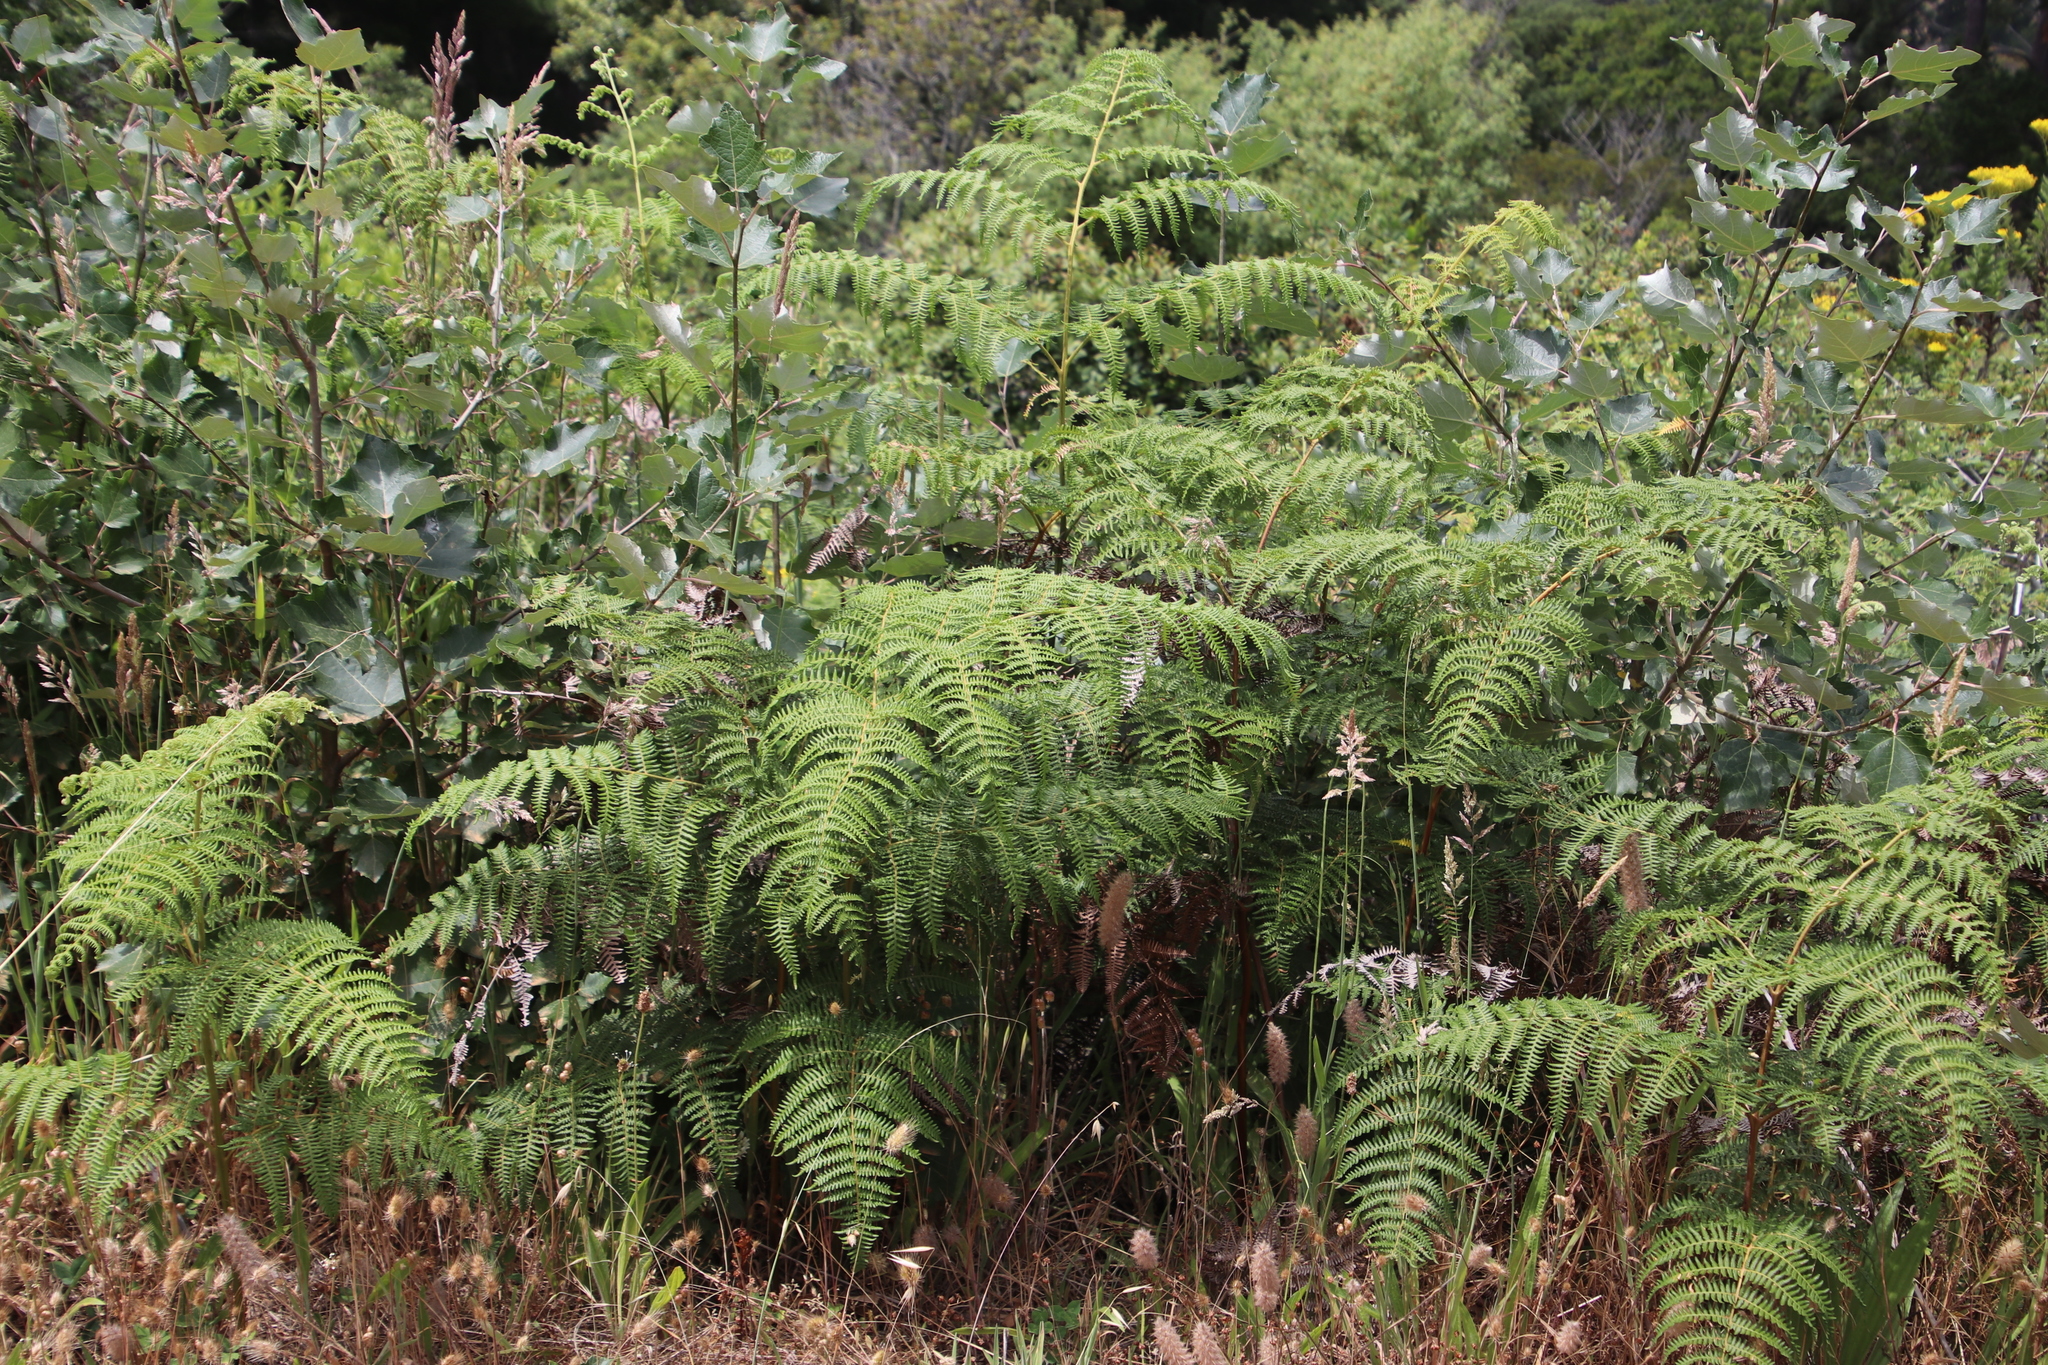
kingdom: Plantae
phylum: Tracheophyta
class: Polypodiopsida
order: Polypodiales
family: Dennstaedtiaceae
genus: Pteridium
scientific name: Pteridium aquilinum
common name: Bracken
